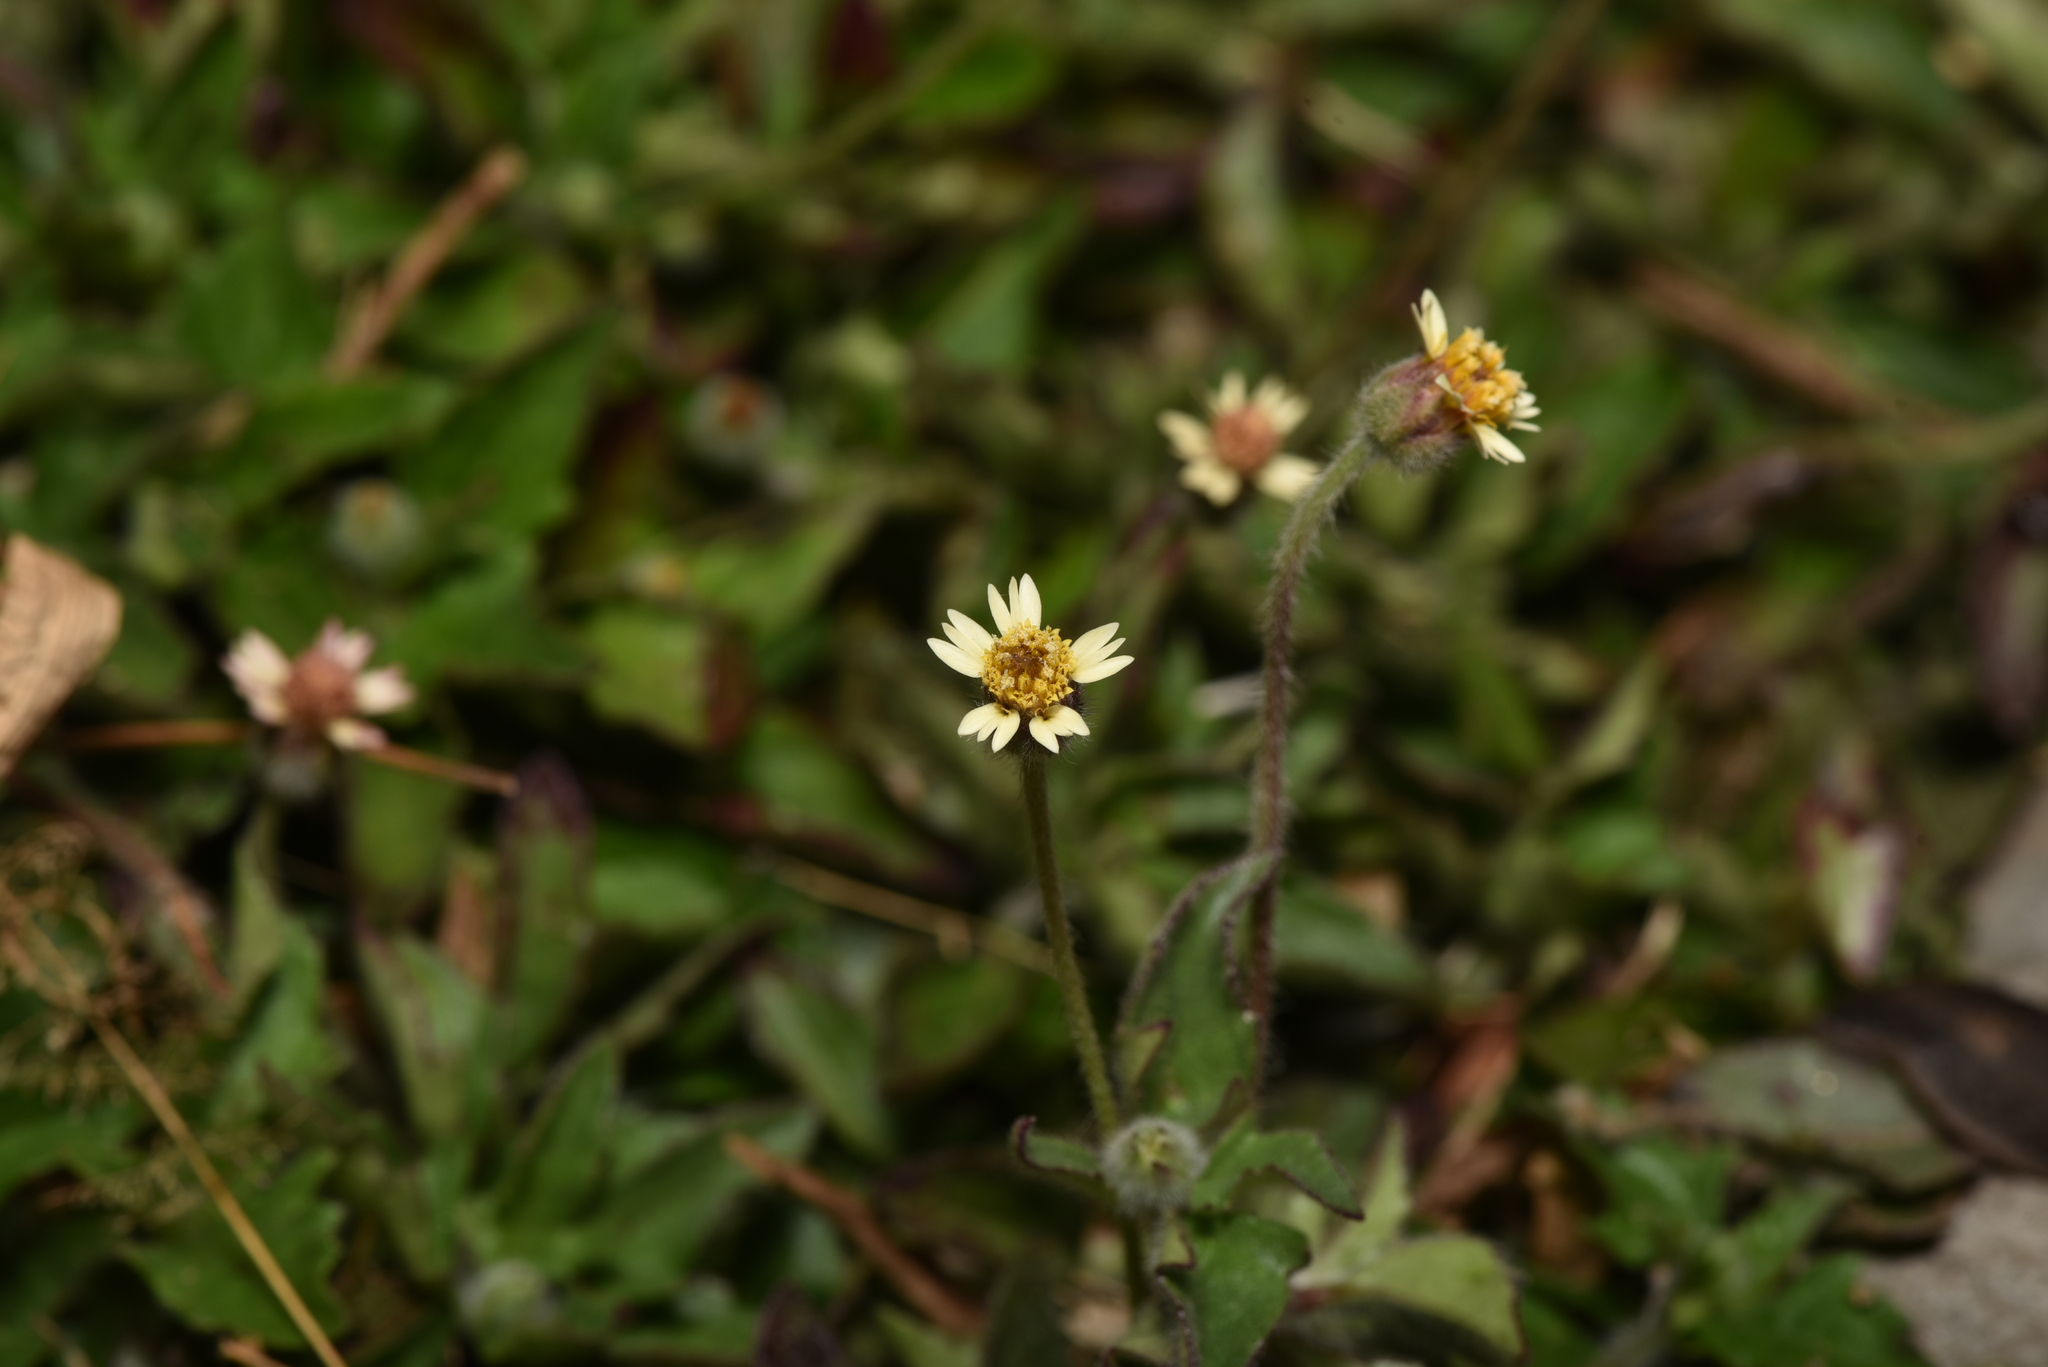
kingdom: Plantae
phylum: Tracheophyta
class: Magnoliopsida
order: Asterales
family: Asteraceae
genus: Tridax
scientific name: Tridax procumbens
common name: Coatbuttons
